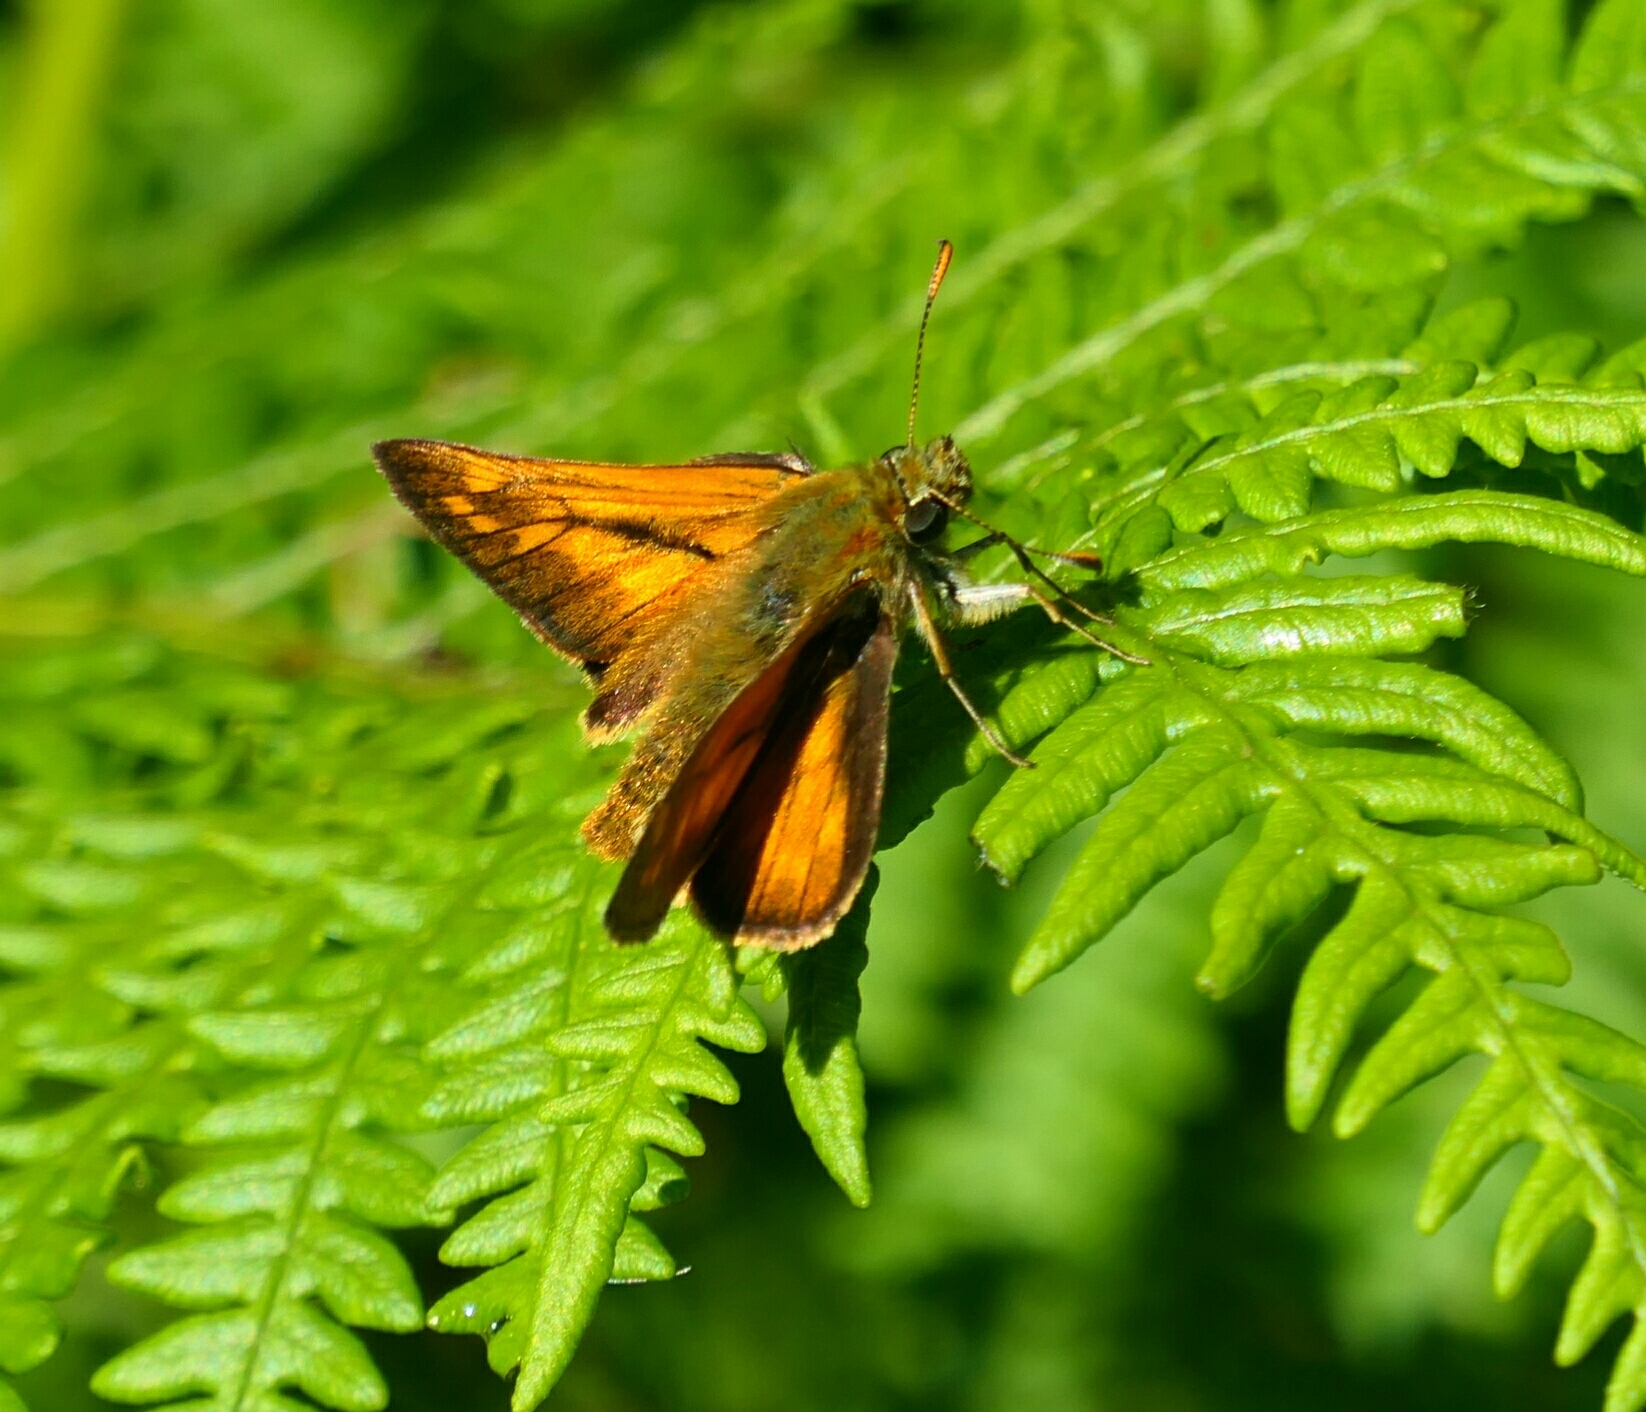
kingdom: Animalia
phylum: Arthropoda
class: Insecta
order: Lepidoptera
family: Hesperiidae
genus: Ochlodes
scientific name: Ochlodes venata
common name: Large skipper
